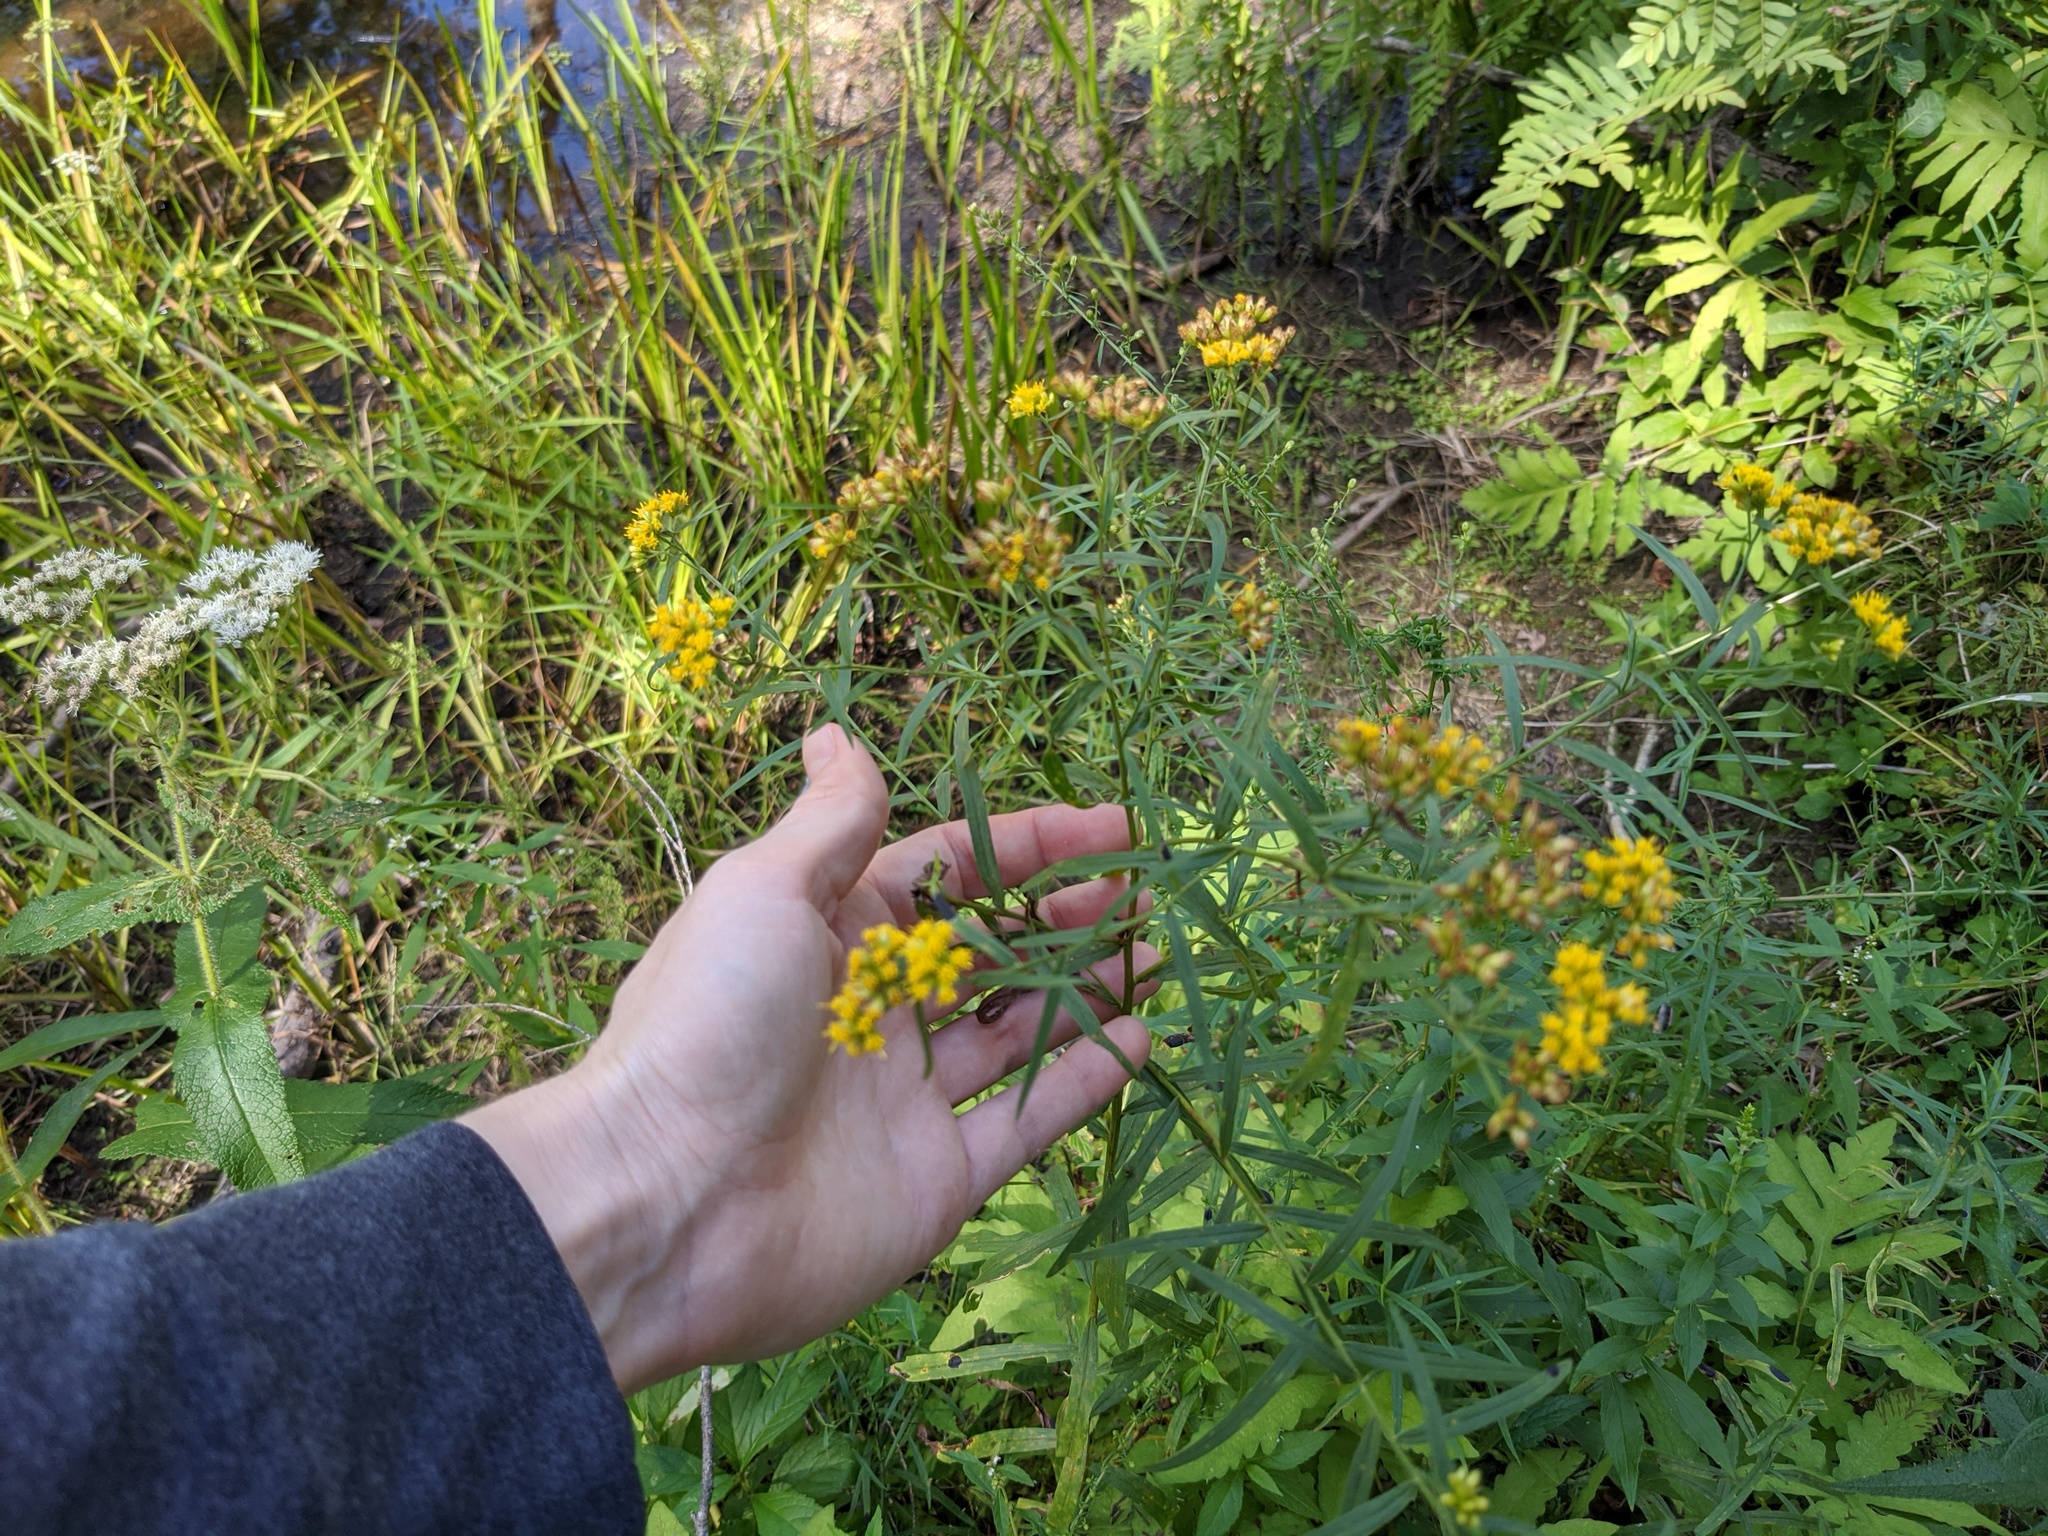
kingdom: Plantae
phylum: Tracheophyta
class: Magnoliopsida
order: Asterales
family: Asteraceae
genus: Euthamia
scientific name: Euthamia graminifolia
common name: Common goldentop
